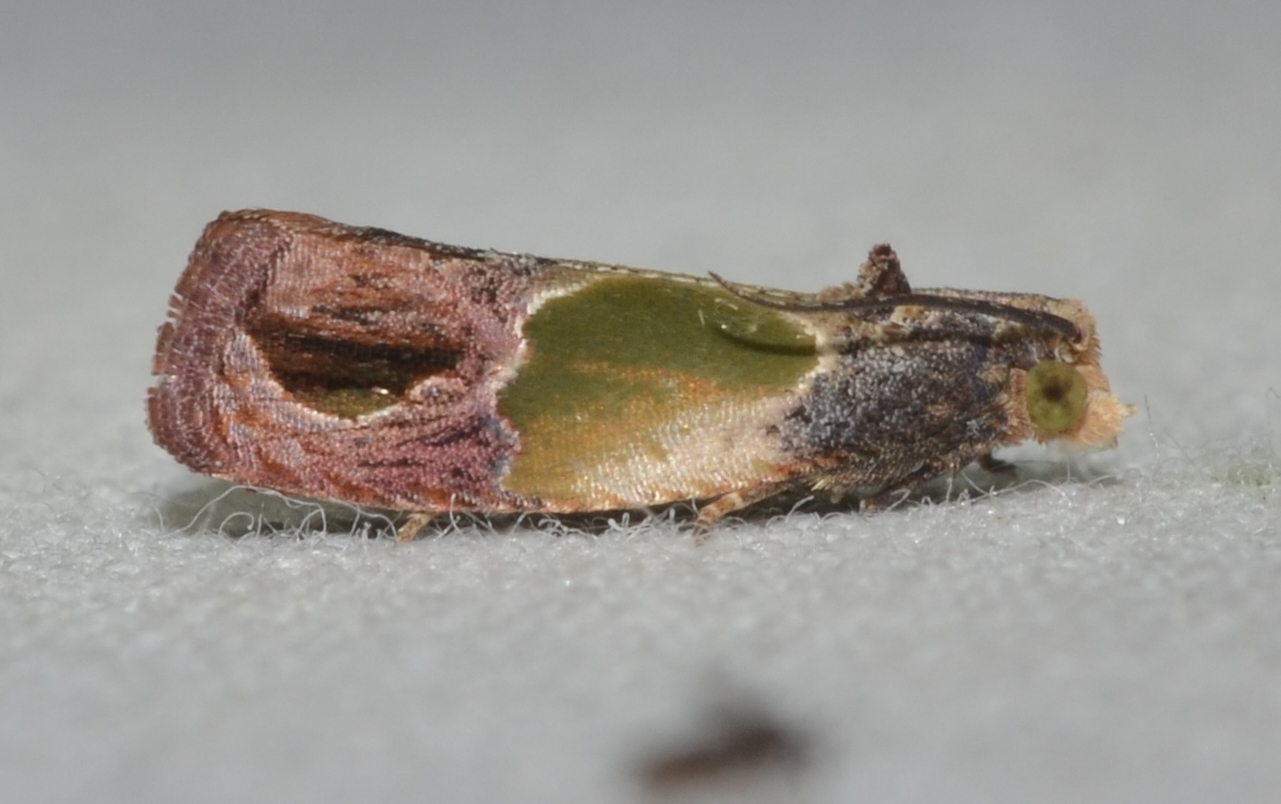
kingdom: Animalia
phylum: Arthropoda
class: Insecta
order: Lepidoptera
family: Tortricidae
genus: Eumarozia
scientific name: Eumarozia malachitana
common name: Sculptured moth
